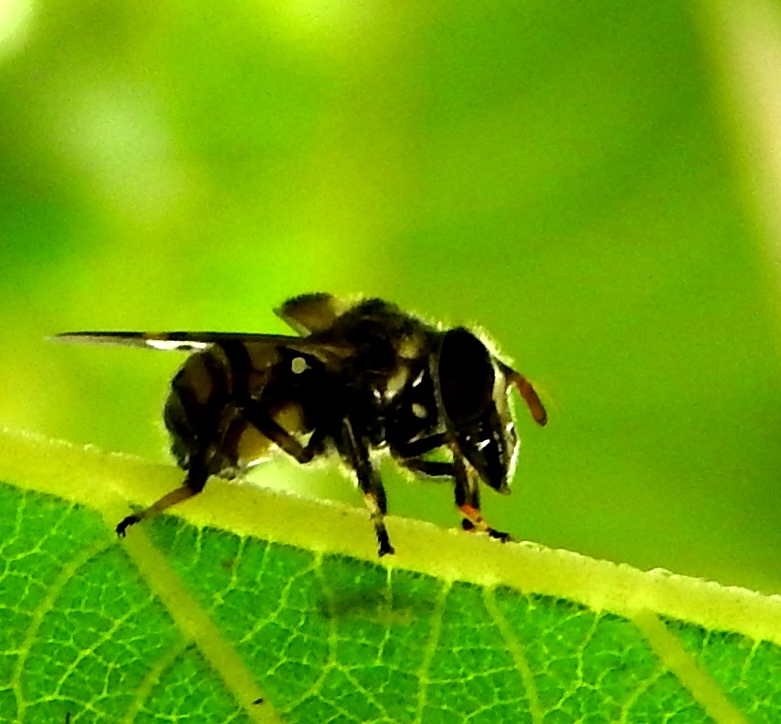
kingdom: Animalia
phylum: Arthropoda
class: Insecta
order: Diptera
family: Syrphidae
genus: Copestylum
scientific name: Copestylum
